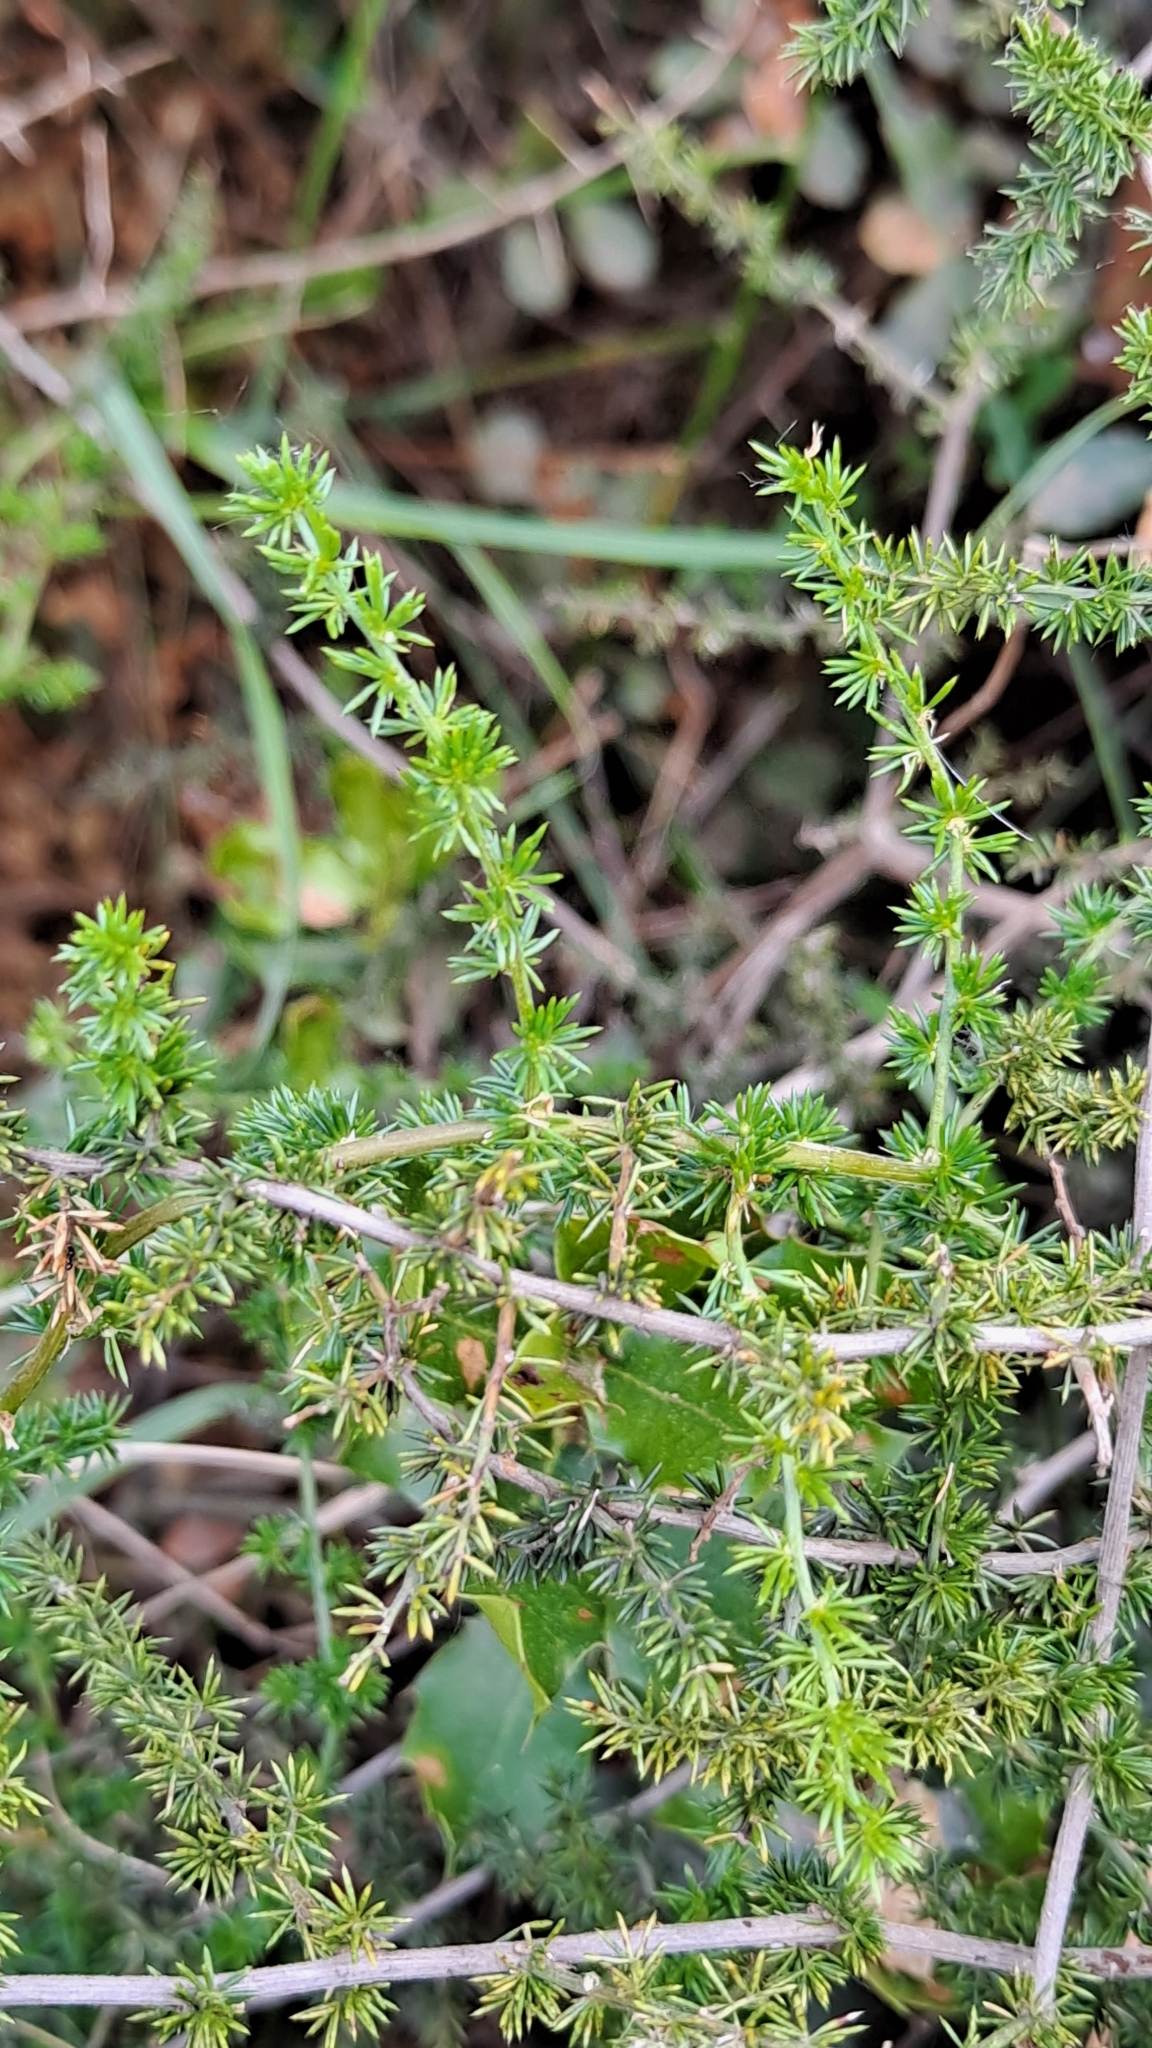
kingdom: Plantae
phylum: Tracheophyta
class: Liliopsida
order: Asparagales
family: Asparagaceae
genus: Asparagus
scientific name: Asparagus acutifolius
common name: Wild asparagus
